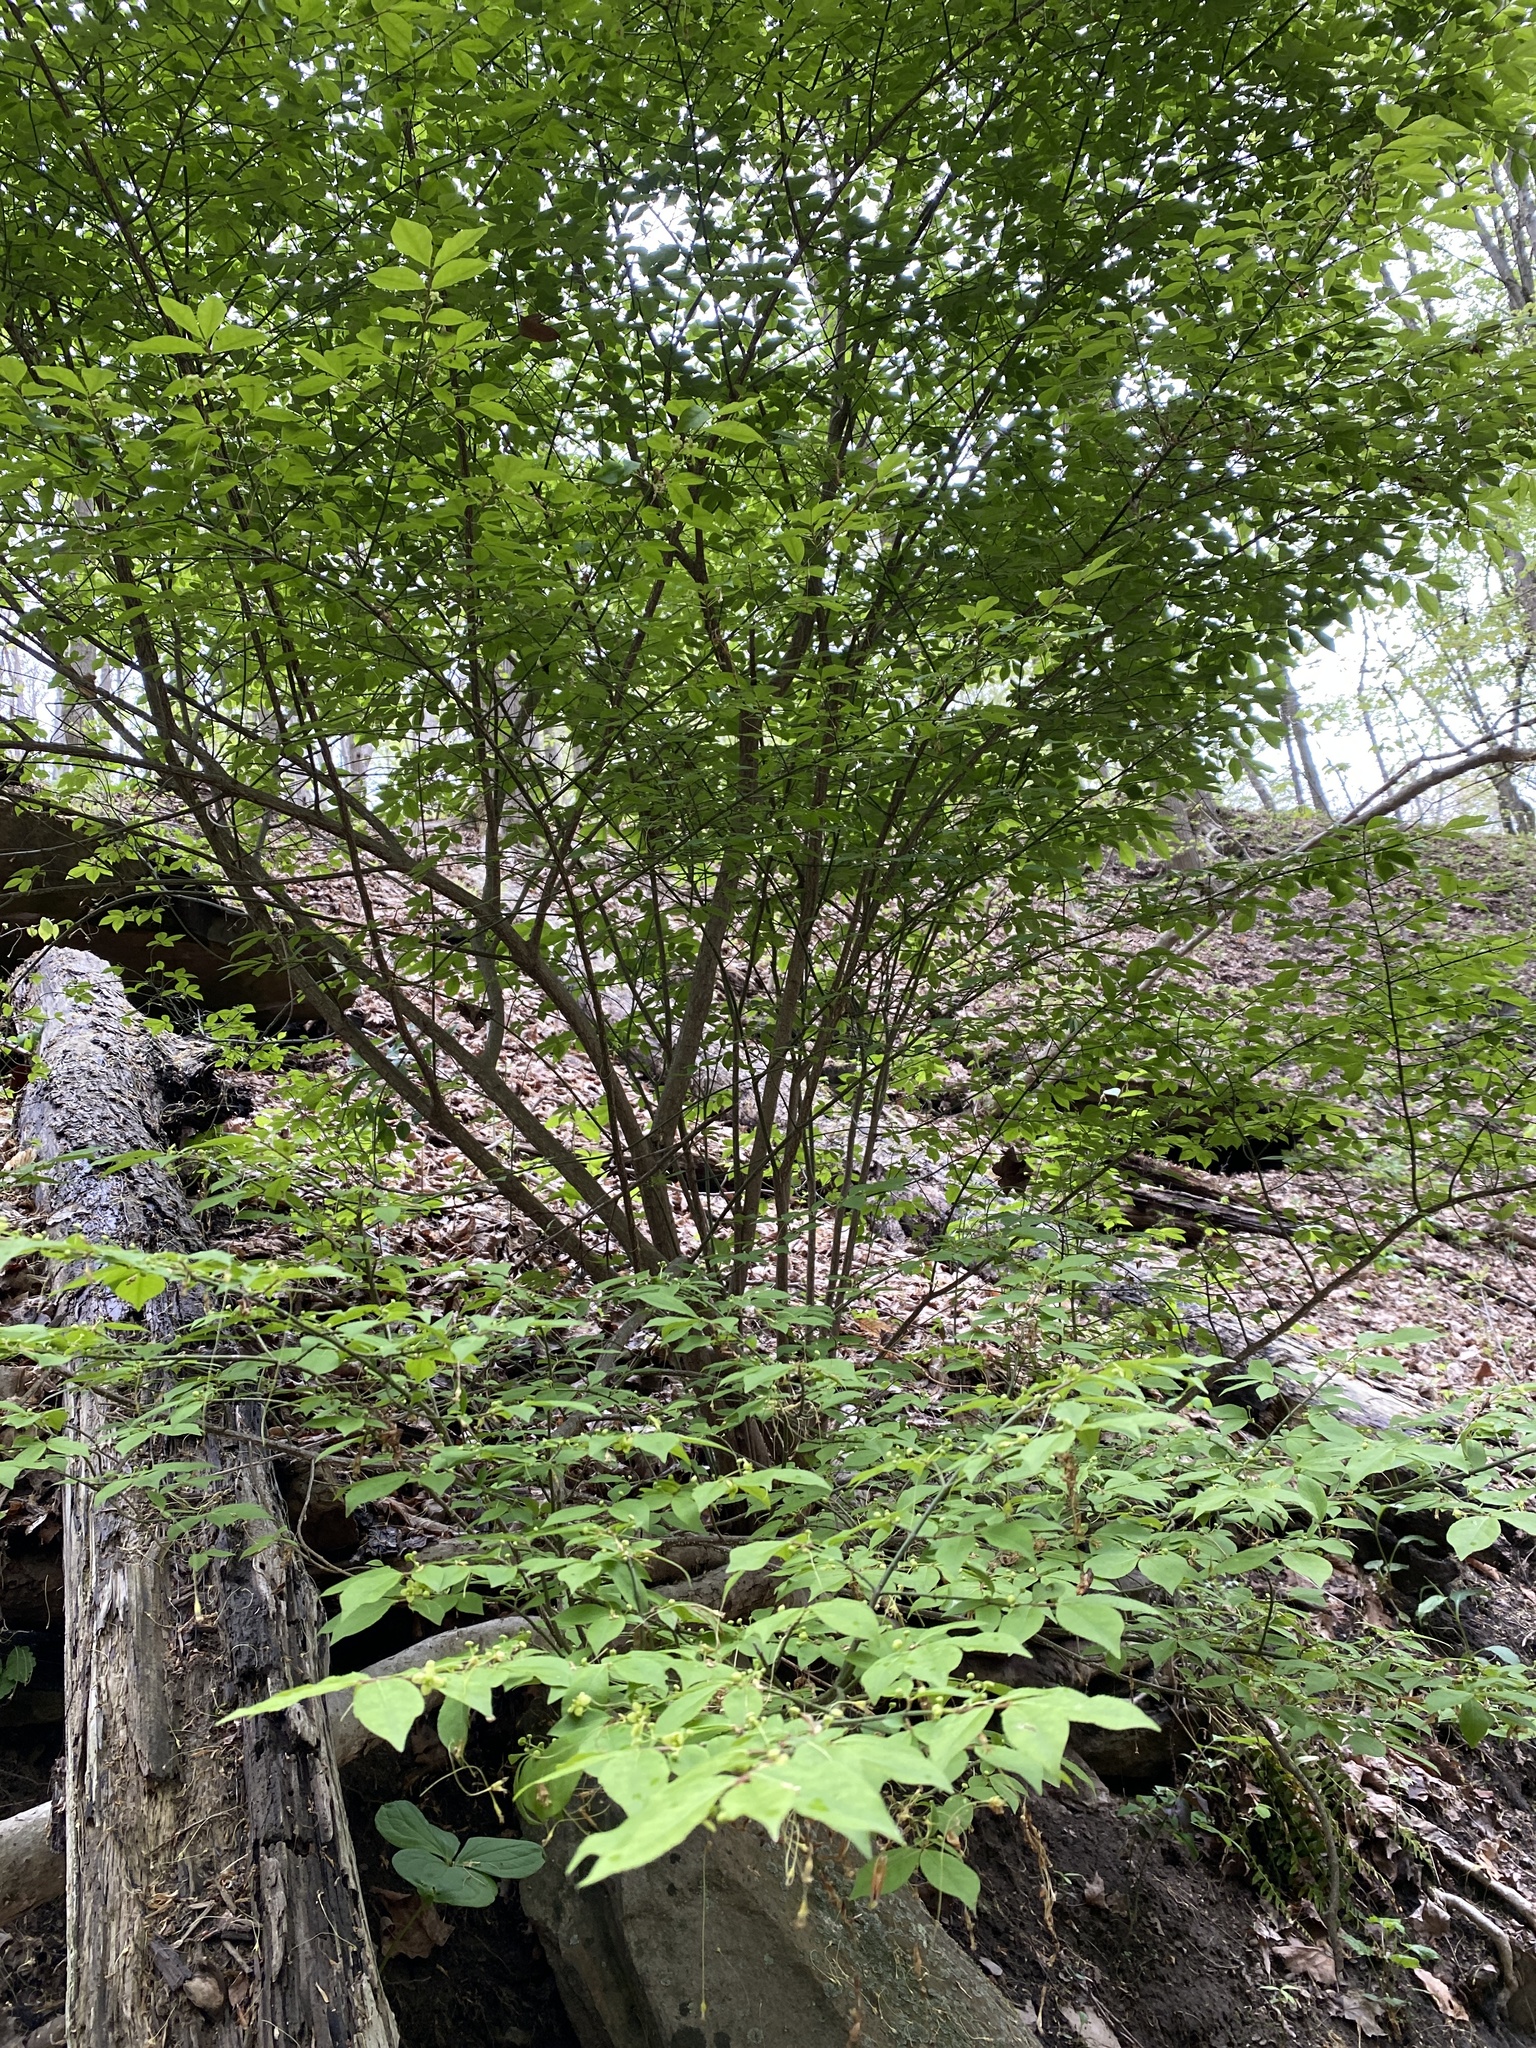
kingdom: Plantae
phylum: Tracheophyta
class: Magnoliopsida
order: Celastrales
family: Celastraceae
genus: Euonymus
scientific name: Euonymus alatus
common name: Winged euonymus
